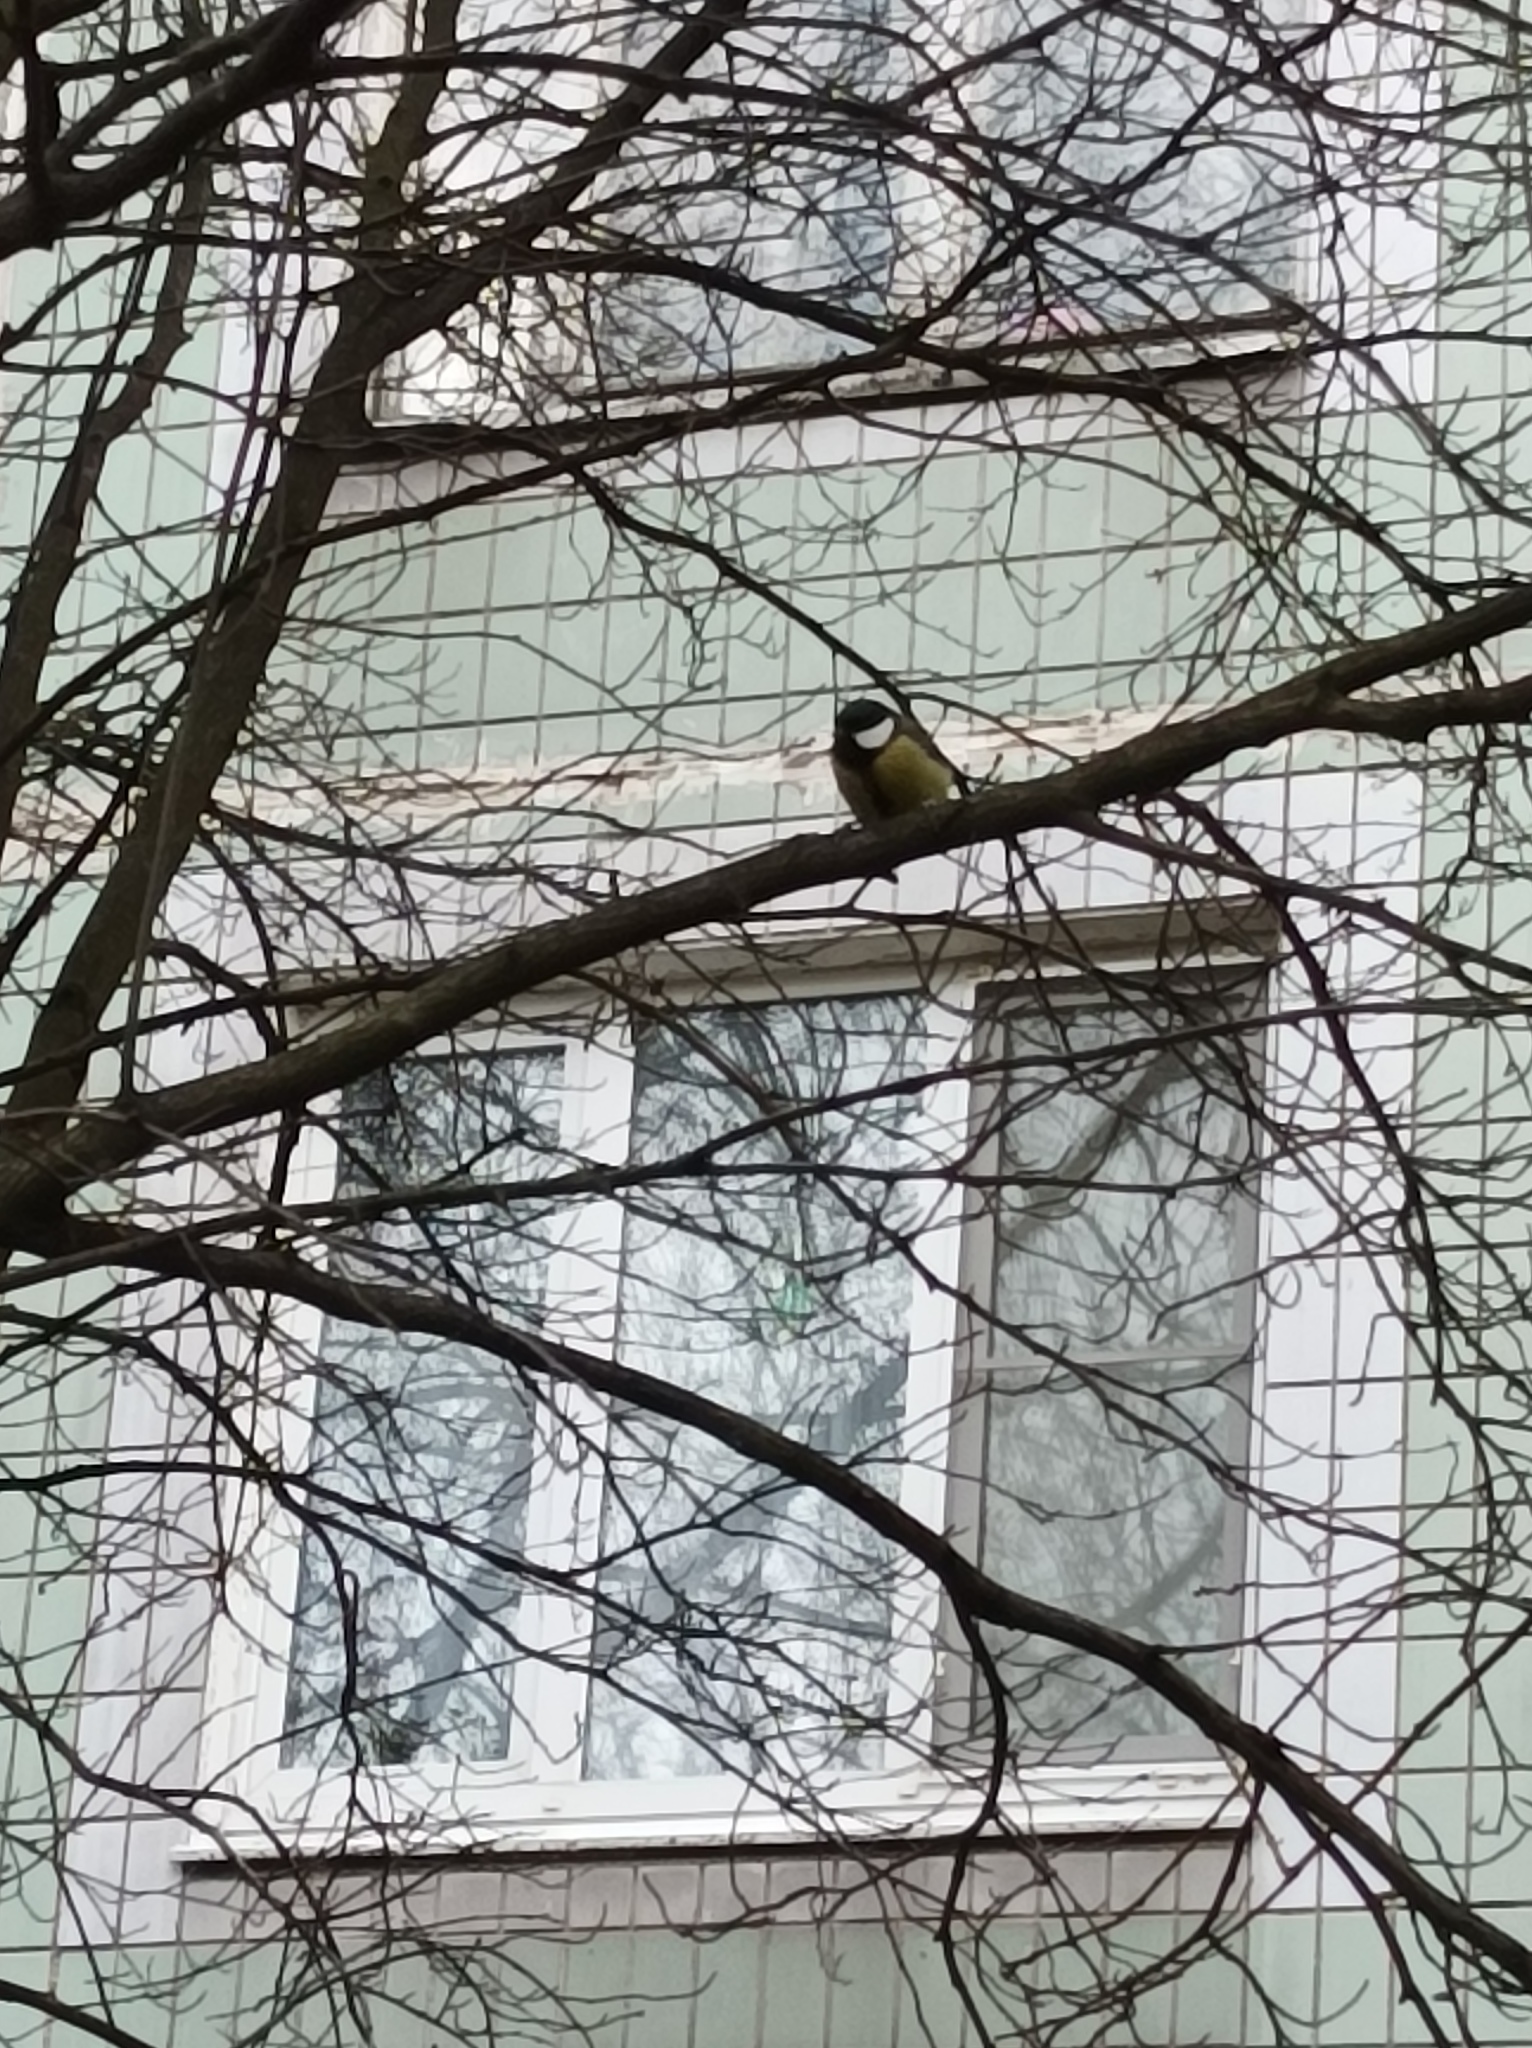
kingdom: Animalia
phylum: Chordata
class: Aves
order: Passeriformes
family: Paridae
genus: Parus
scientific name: Parus major
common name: Great tit
